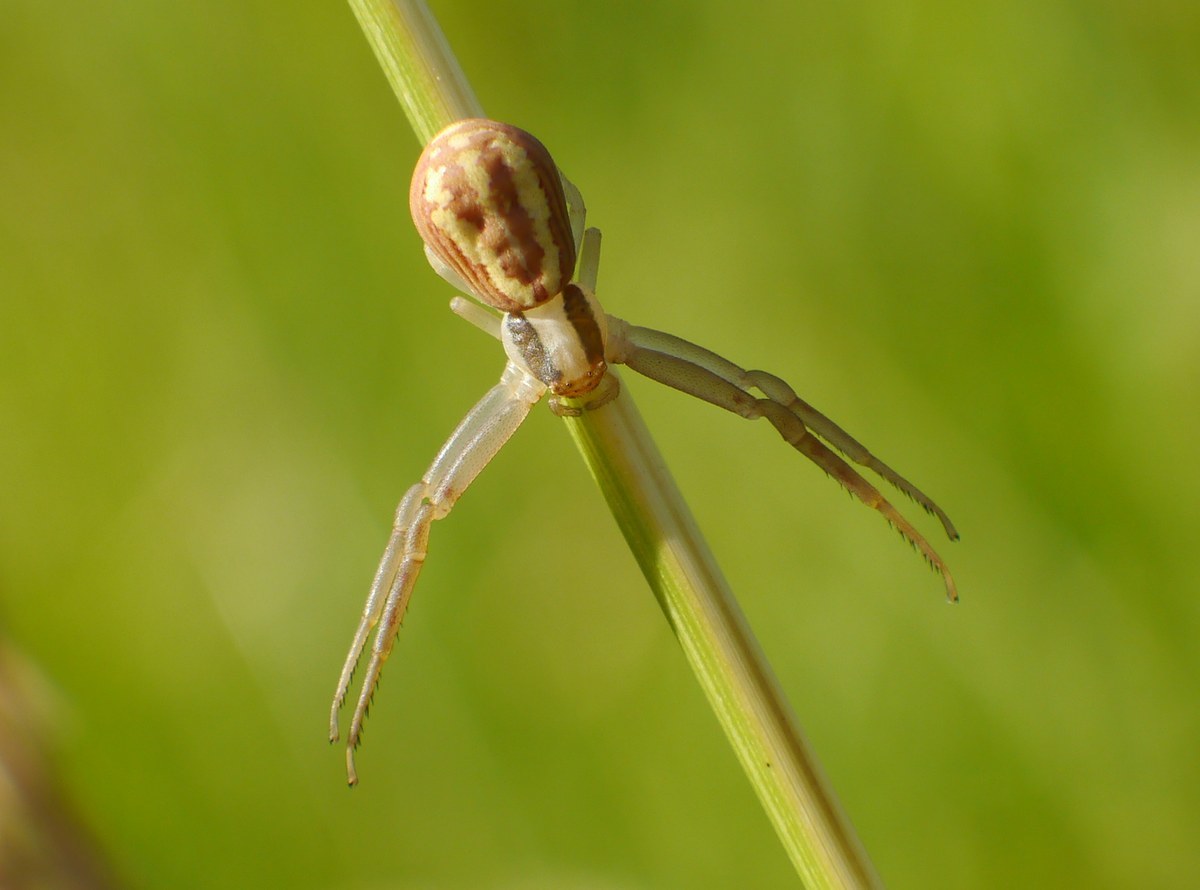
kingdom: Animalia
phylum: Arthropoda
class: Arachnida
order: Araneae
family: Thomisidae
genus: Runcinia
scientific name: Runcinia grammica
